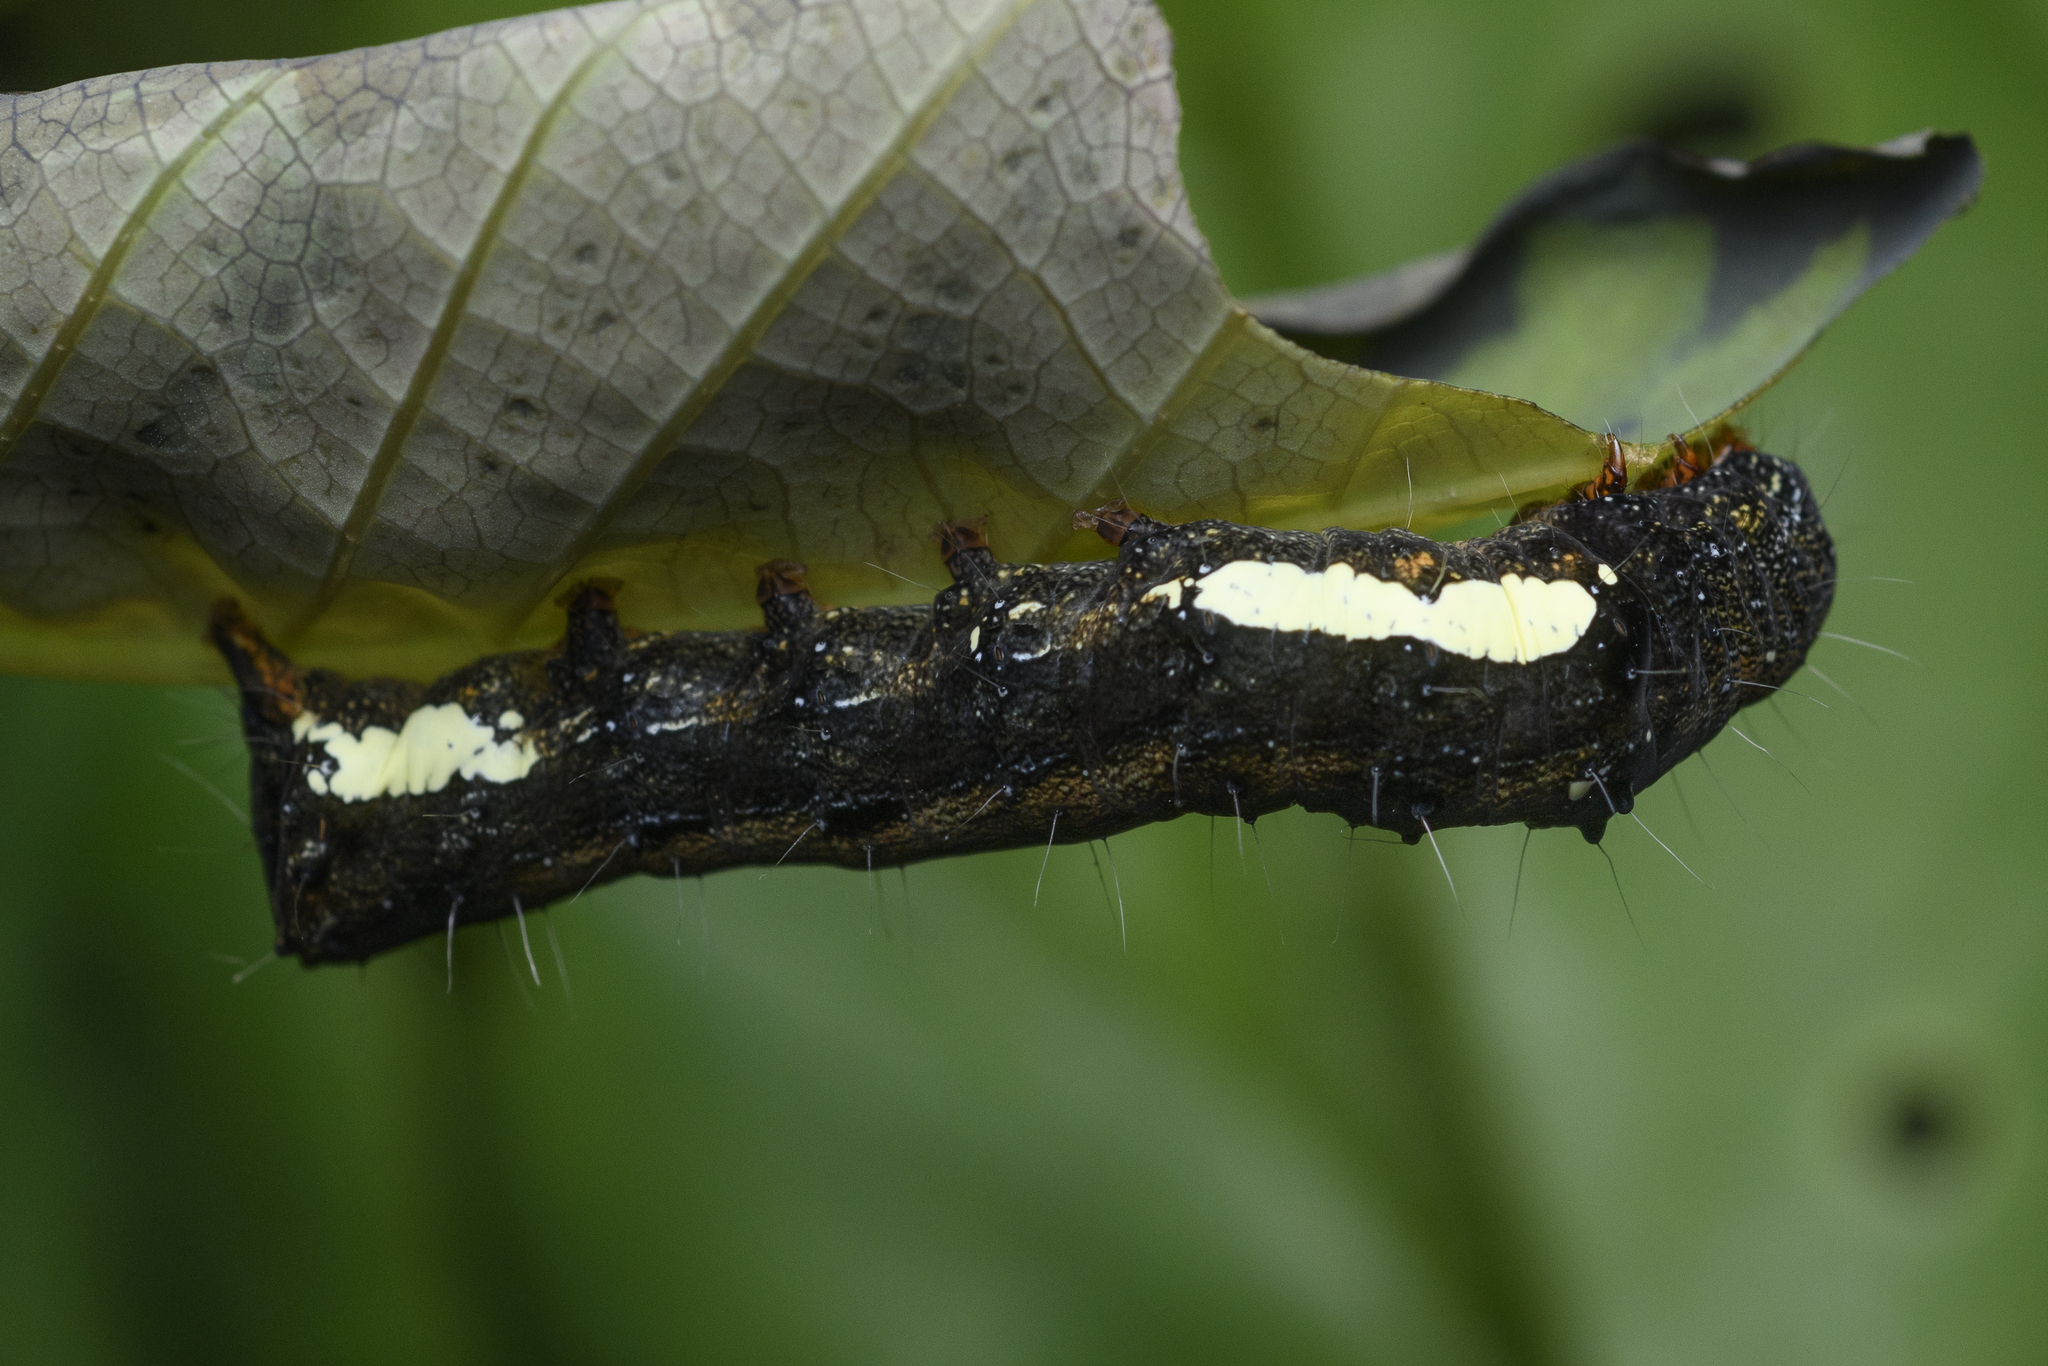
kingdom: Animalia
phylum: Arthropoda
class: Insecta
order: Lepidoptera
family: Noctuidae
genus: Tiracola
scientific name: Tiracola aureata
